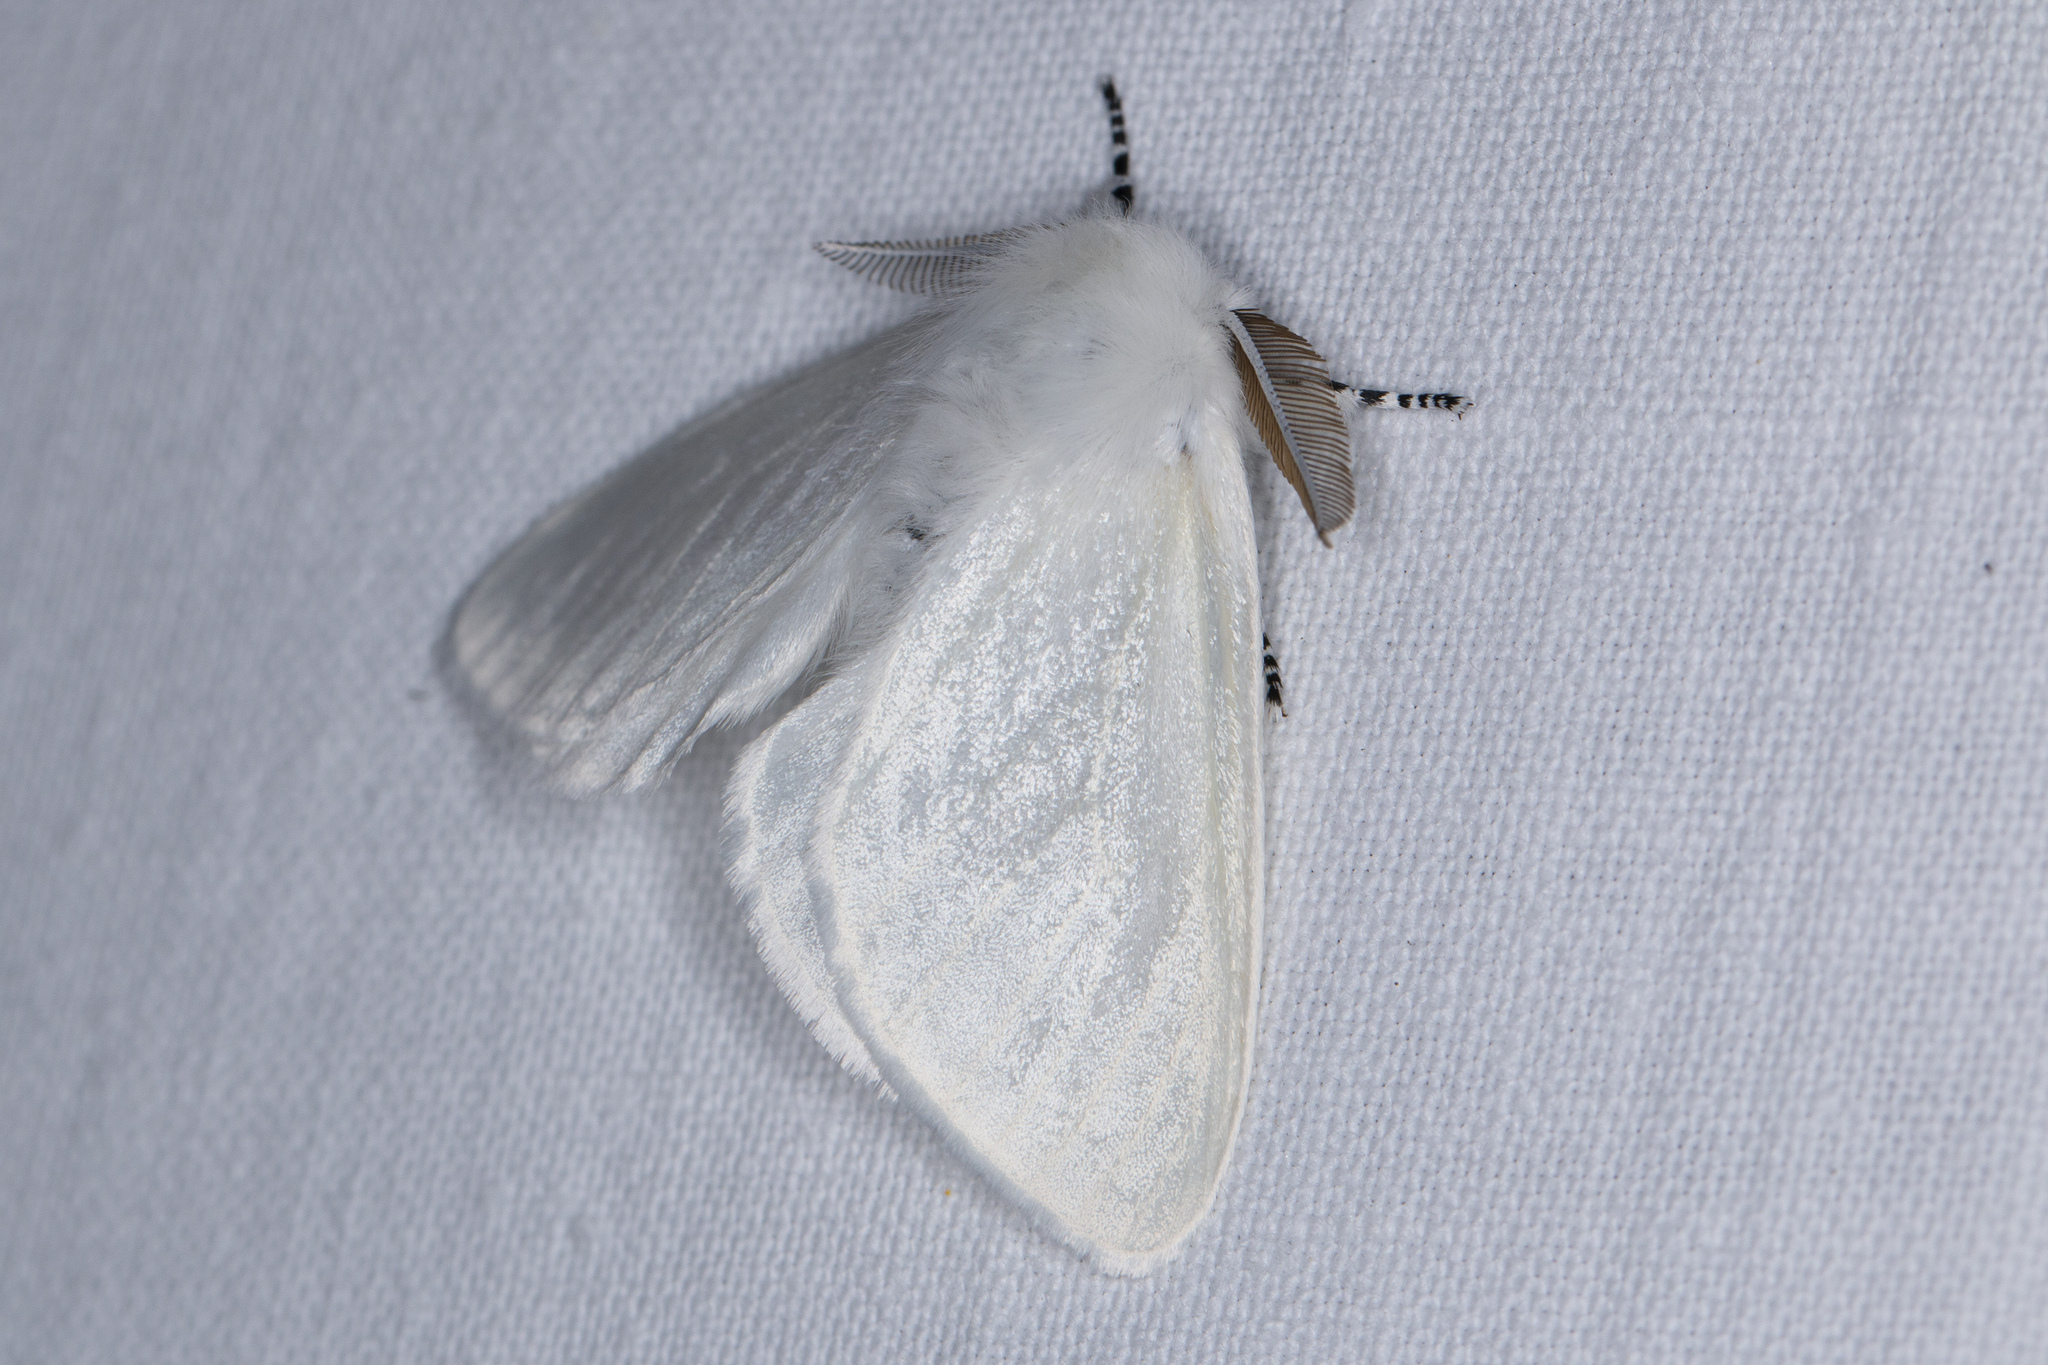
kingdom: Animalia
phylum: Arthropoda
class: Insecta
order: Lepidoptera
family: Erebidae
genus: Leucoma
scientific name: Leucoma salicis
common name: White satin moth
